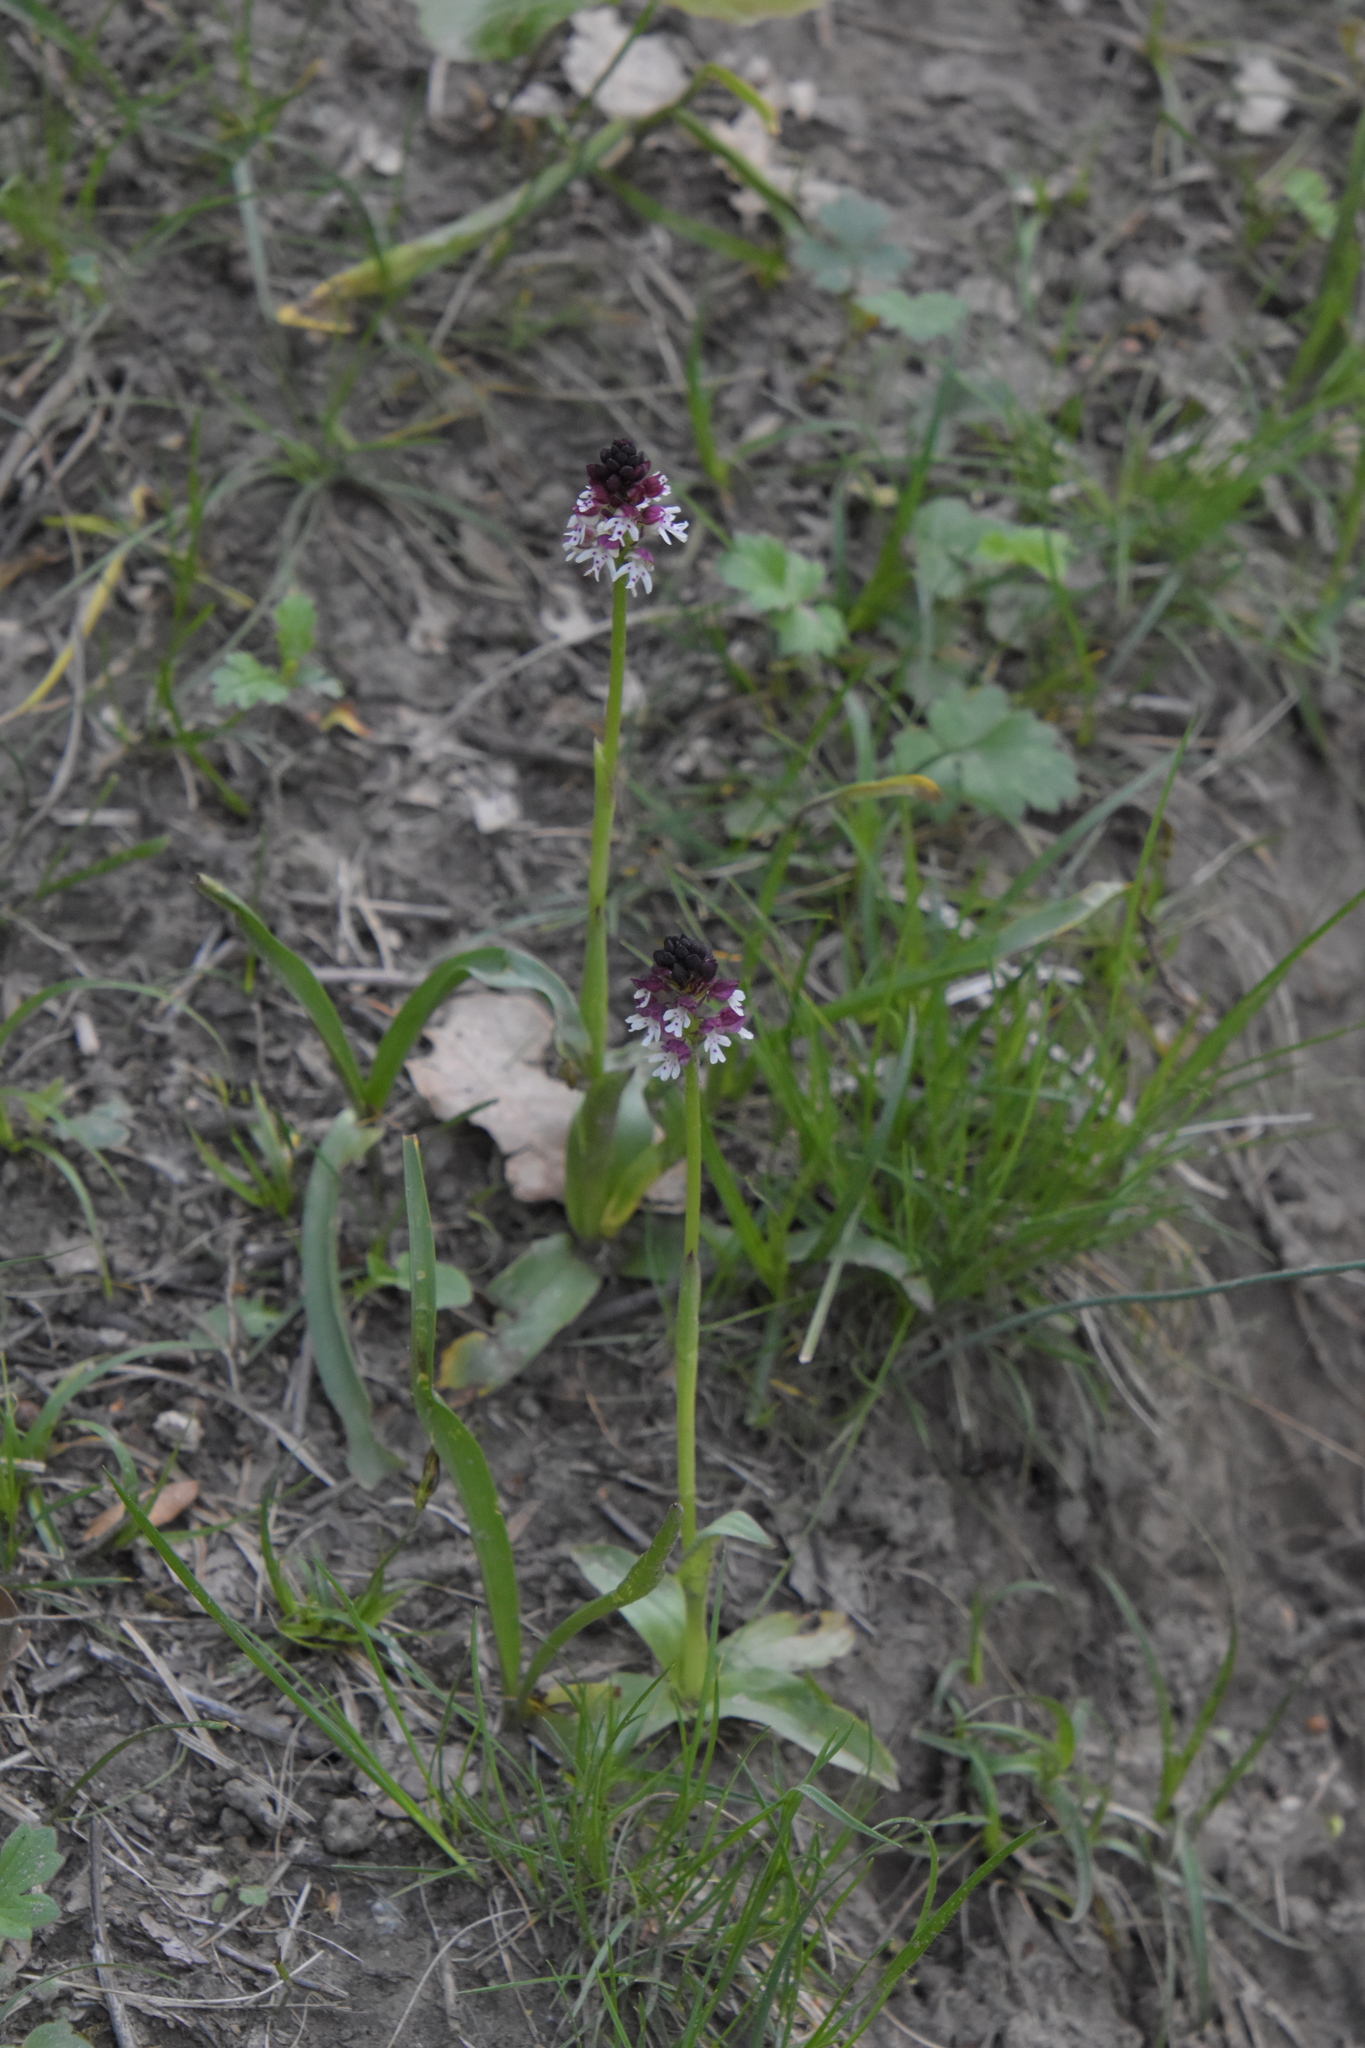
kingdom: Plantae
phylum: Tracheophyta
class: Liliopsida
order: Asparagales
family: Orchidaceae
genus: Neotinea
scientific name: Neotinea ustulata
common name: Burnt orchid
